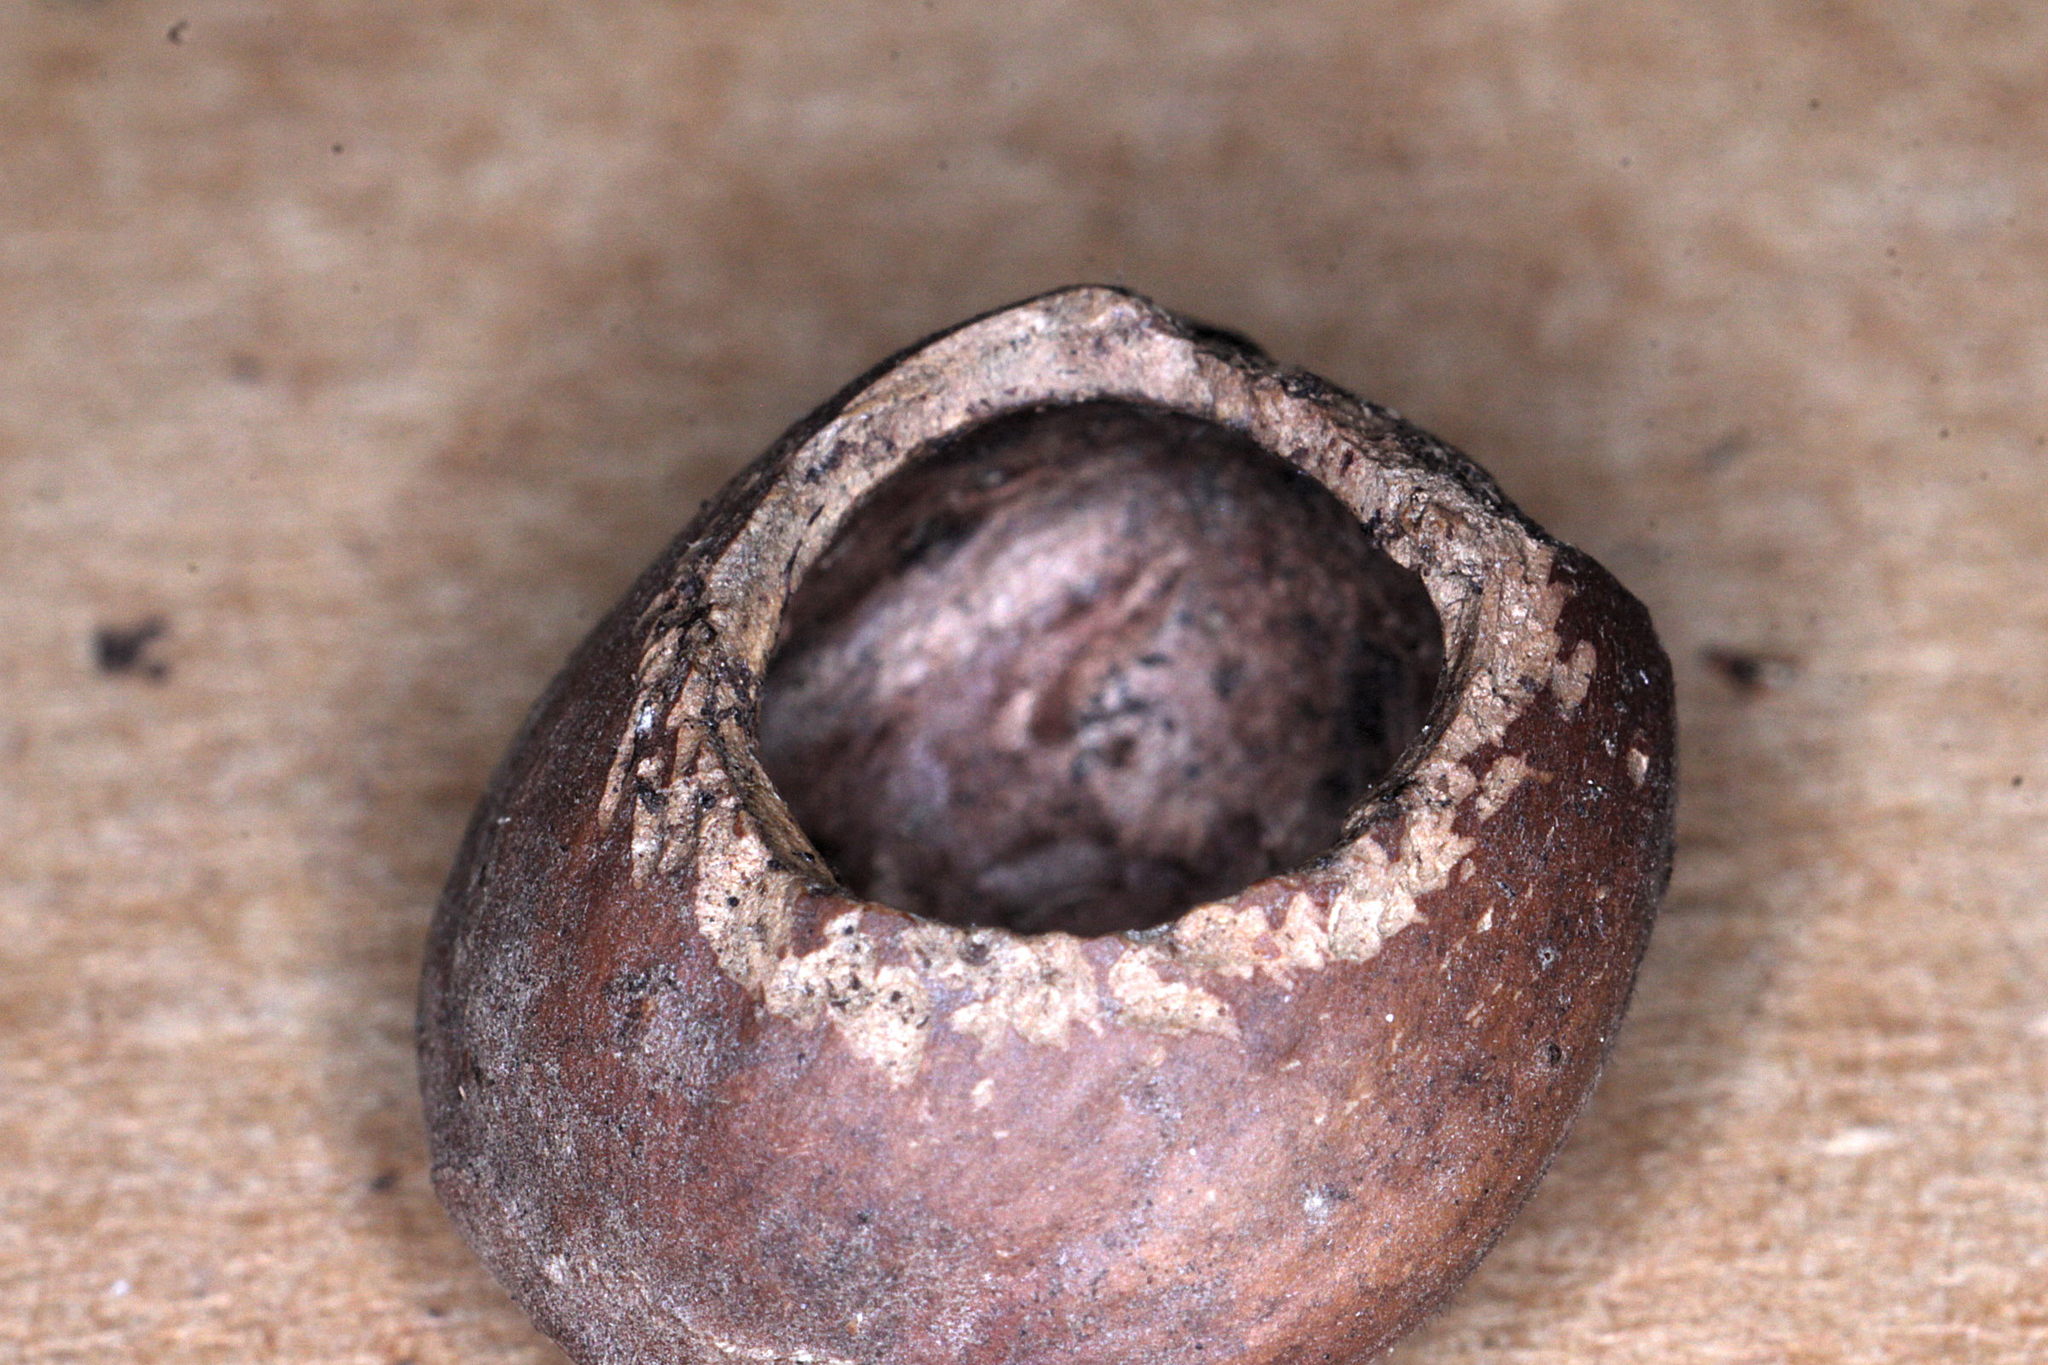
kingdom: Animalia
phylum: Chordata
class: Mammalia
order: Rodentia
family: Gliridae
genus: Muscardinus
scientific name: Muscardinus avellanarius
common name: Hazel dormouse
